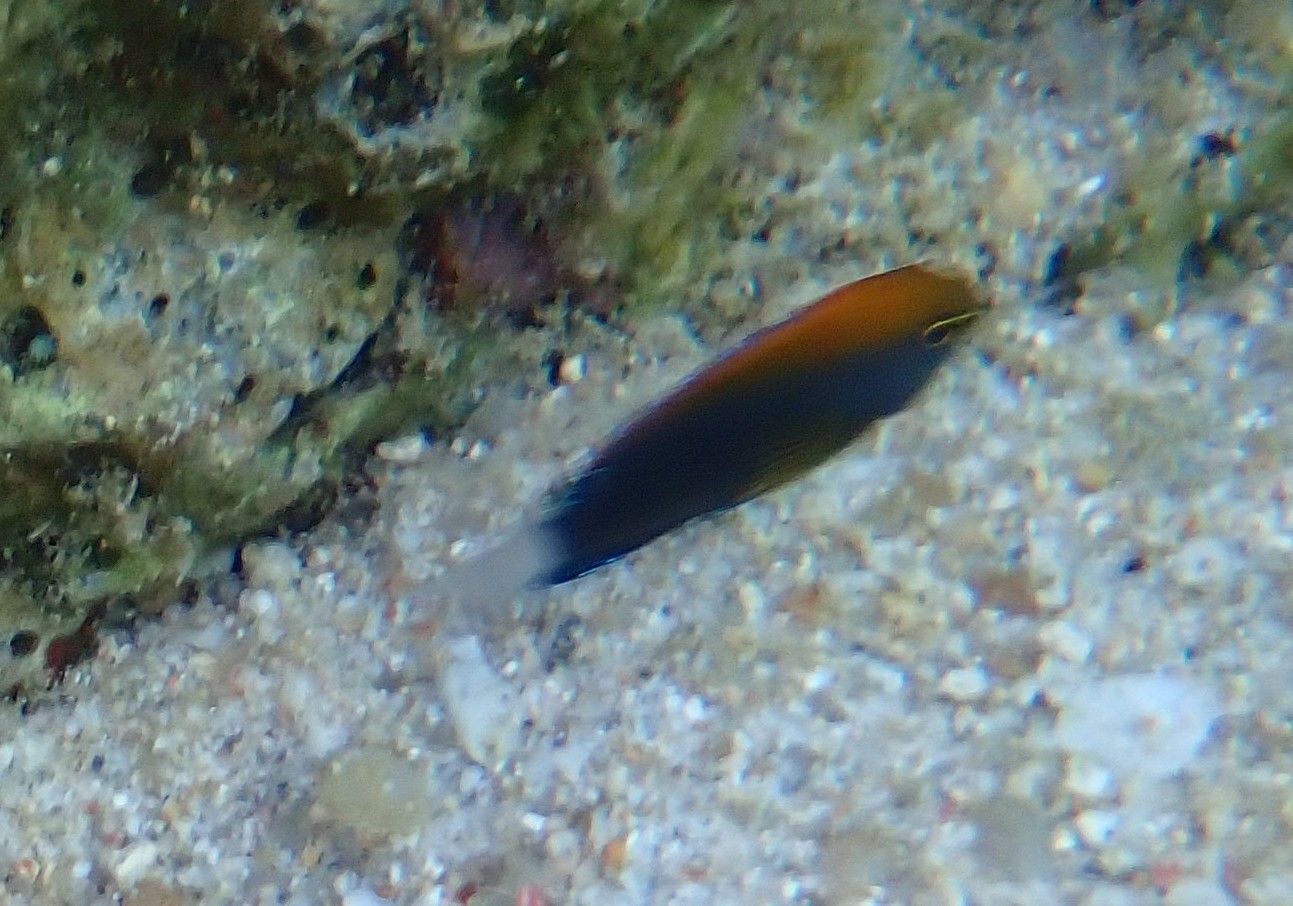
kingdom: Animalia
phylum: Chordata
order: Perciformes
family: Pomacentridae
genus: Pomacentrus
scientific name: Pomacentrus chrysurus
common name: White-tail damsel
